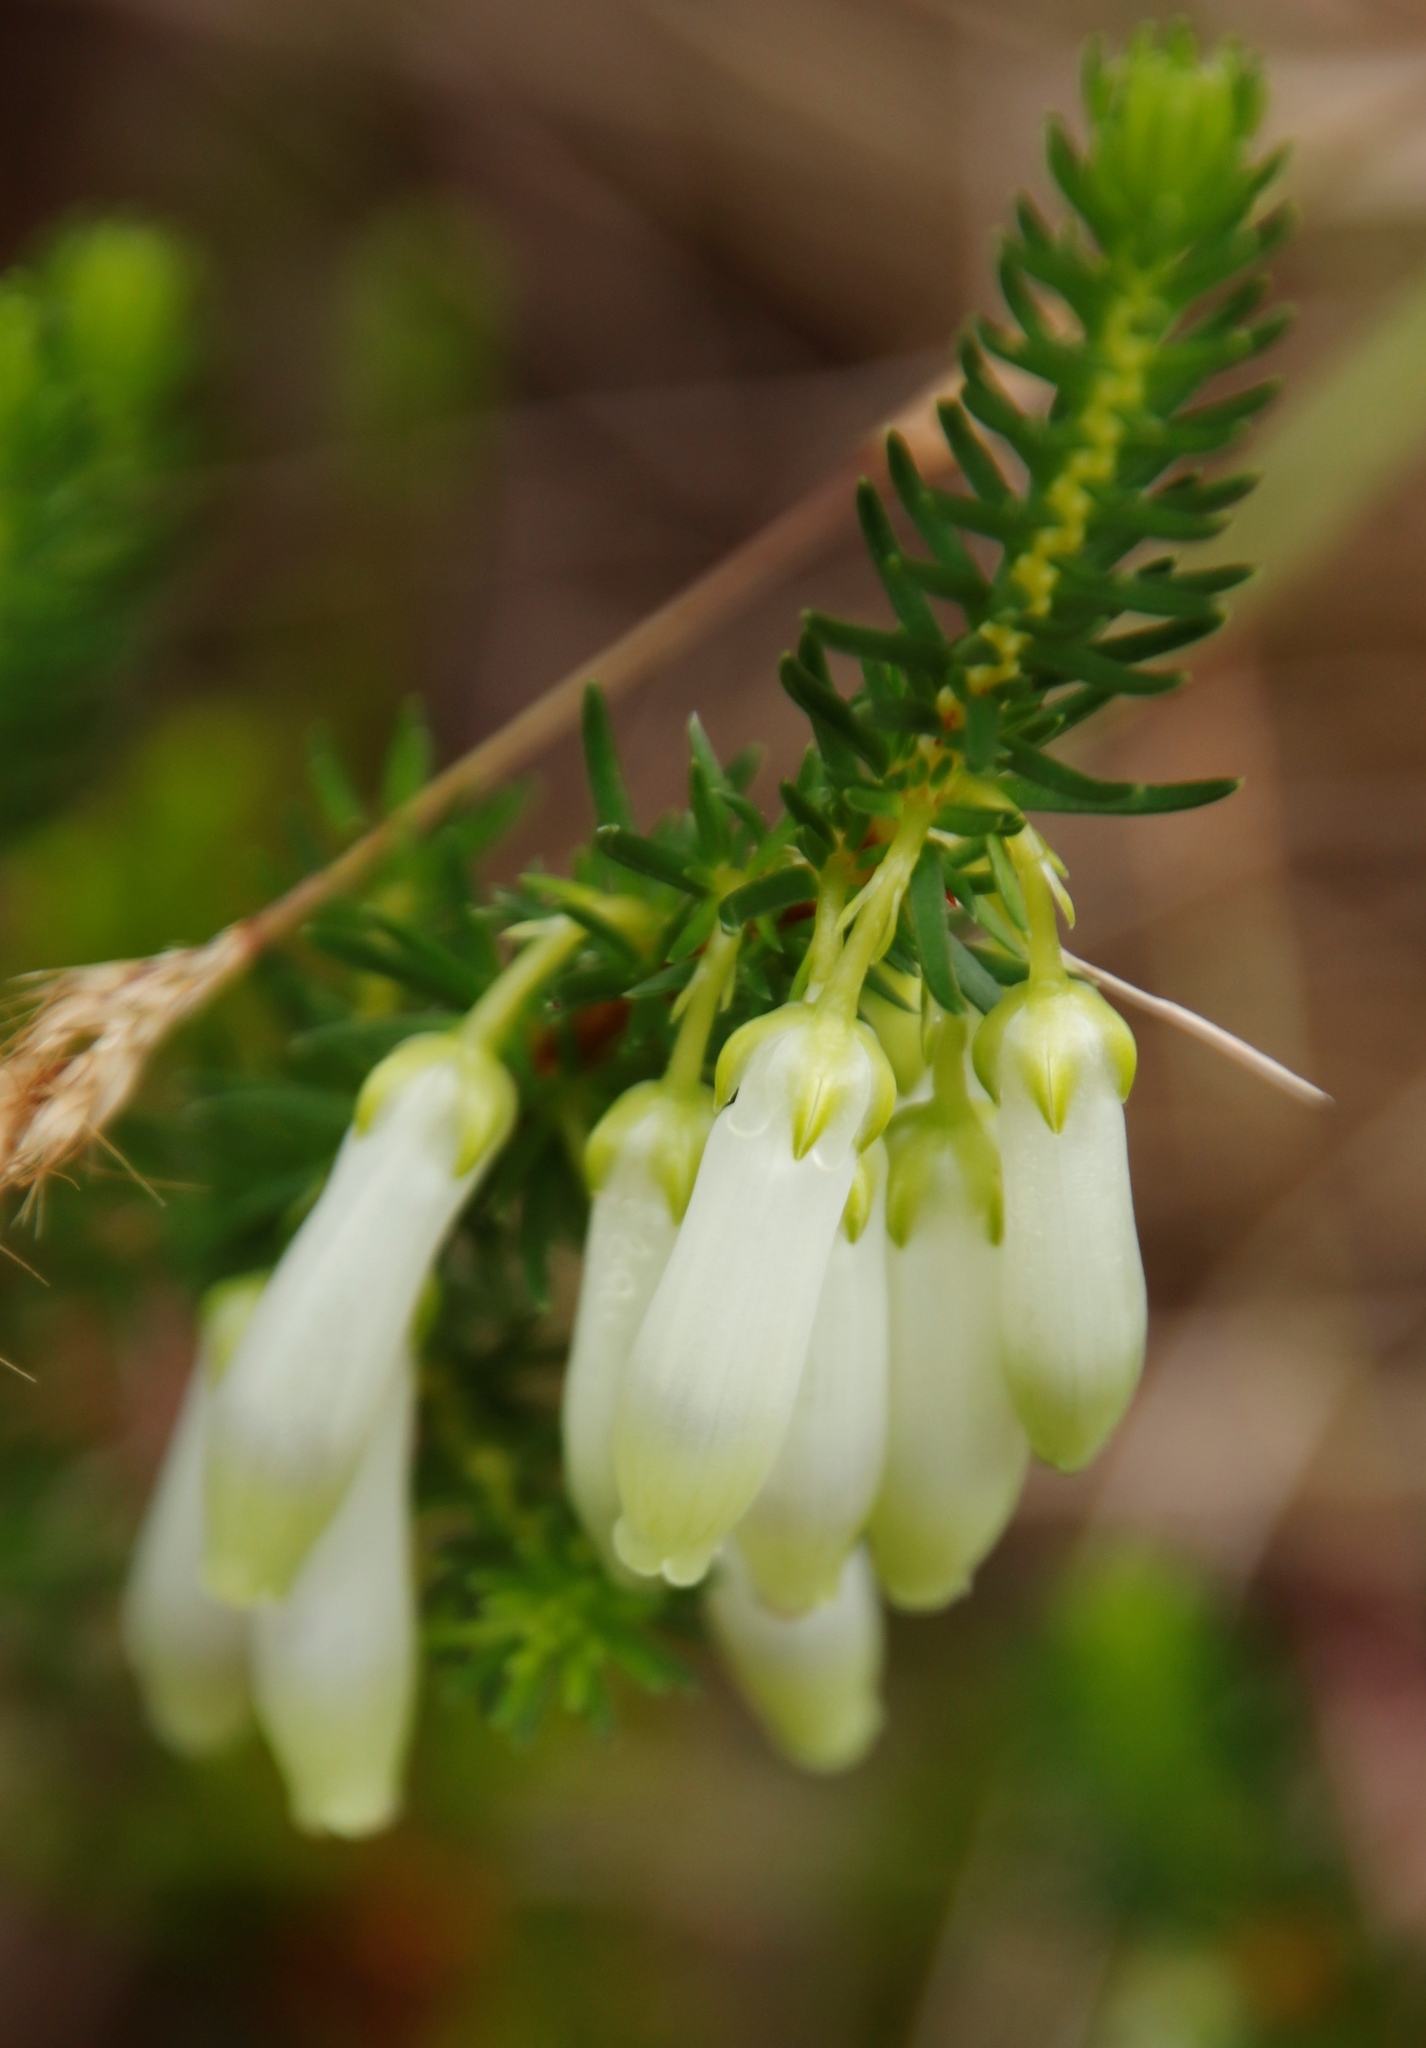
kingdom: Plantae
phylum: Tracheophyta
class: Magnoliopsida
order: Ericales
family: Ericaceae
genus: Erica
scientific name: Erica mammosa
